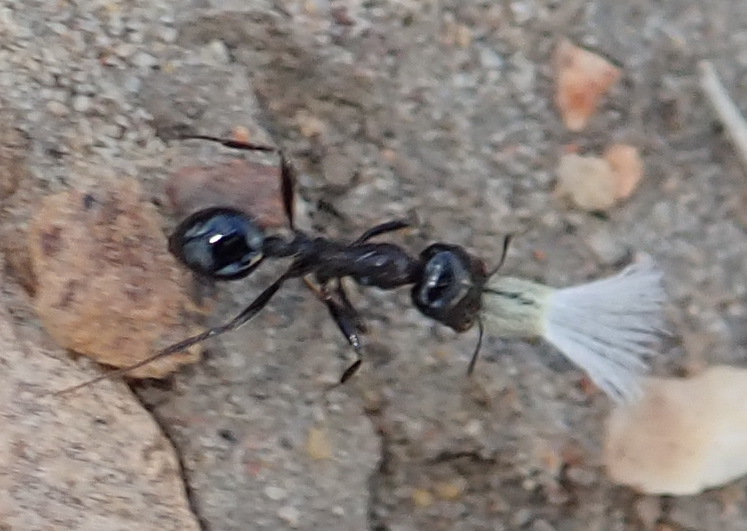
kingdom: Animalia
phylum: Arthropoda
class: Insecta
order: Hymenoptera
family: Formicidae
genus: Messor
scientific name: Messor capensis
